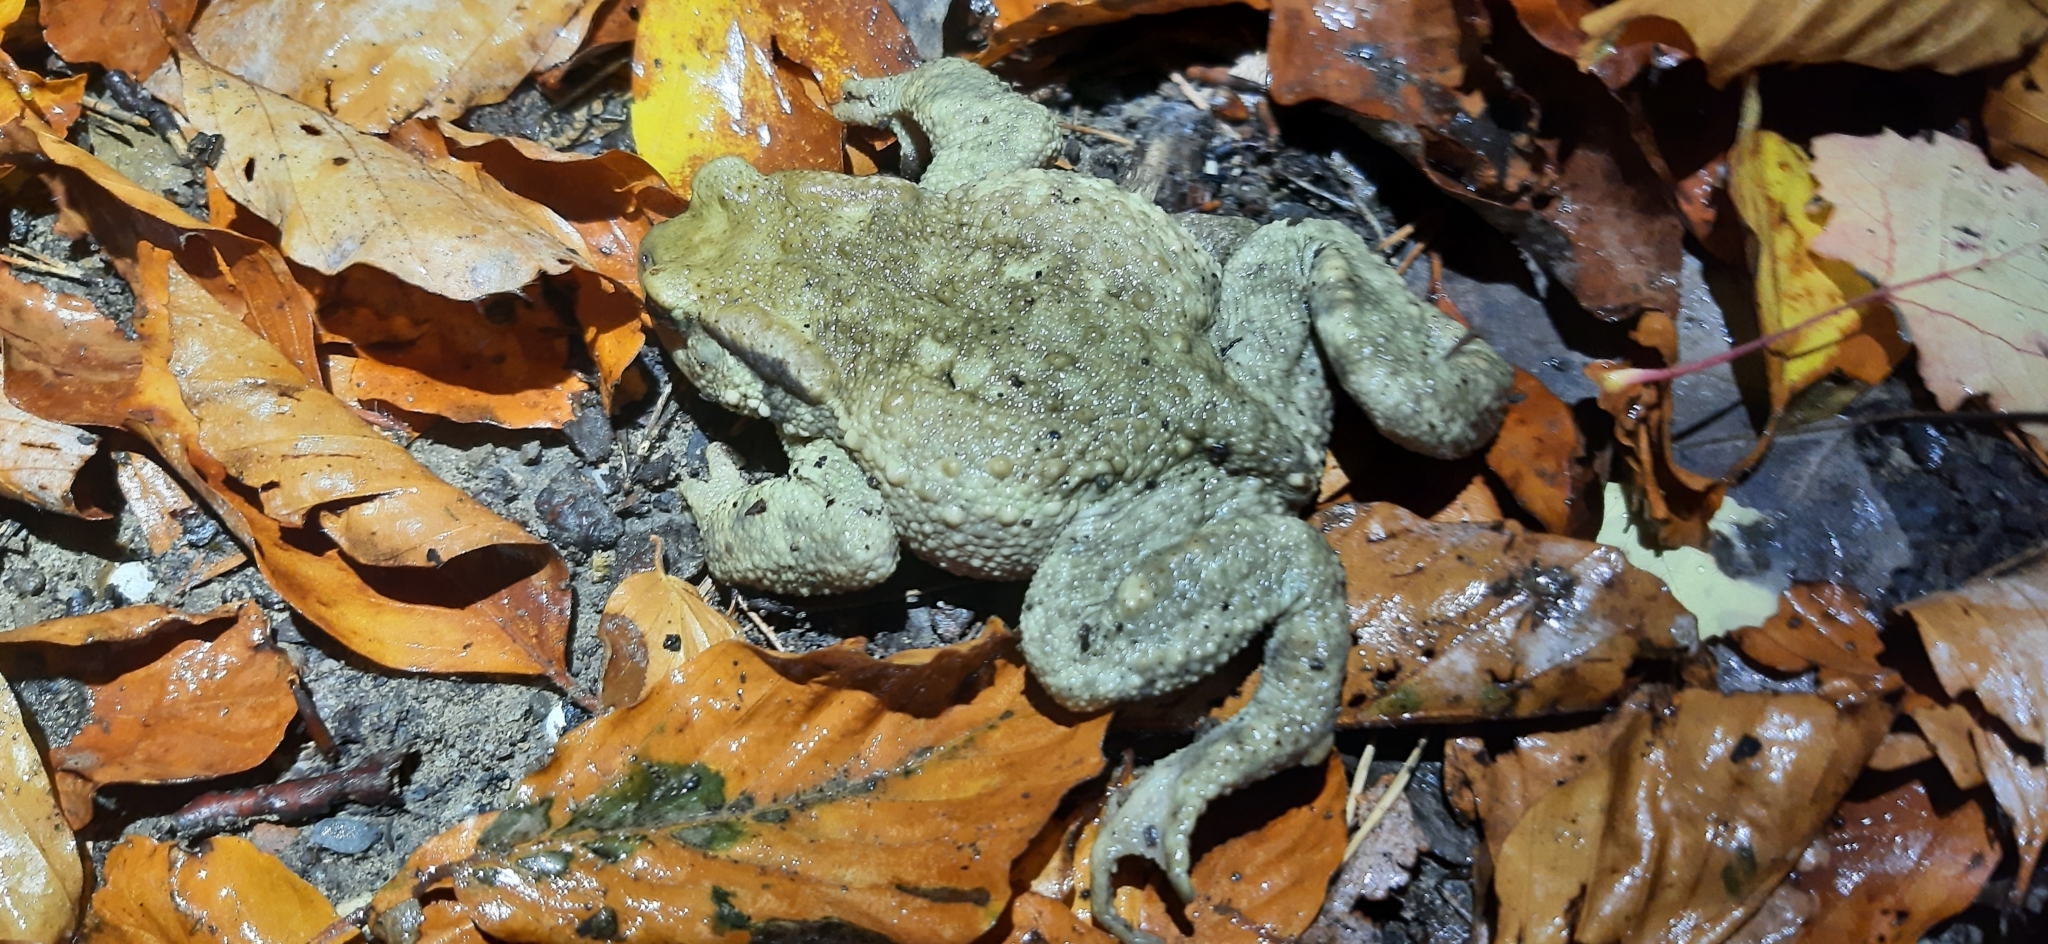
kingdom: Animalia
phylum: Chordata
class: Amphibia
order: Anura
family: Bufonidae
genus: Bufo
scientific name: Bufo
